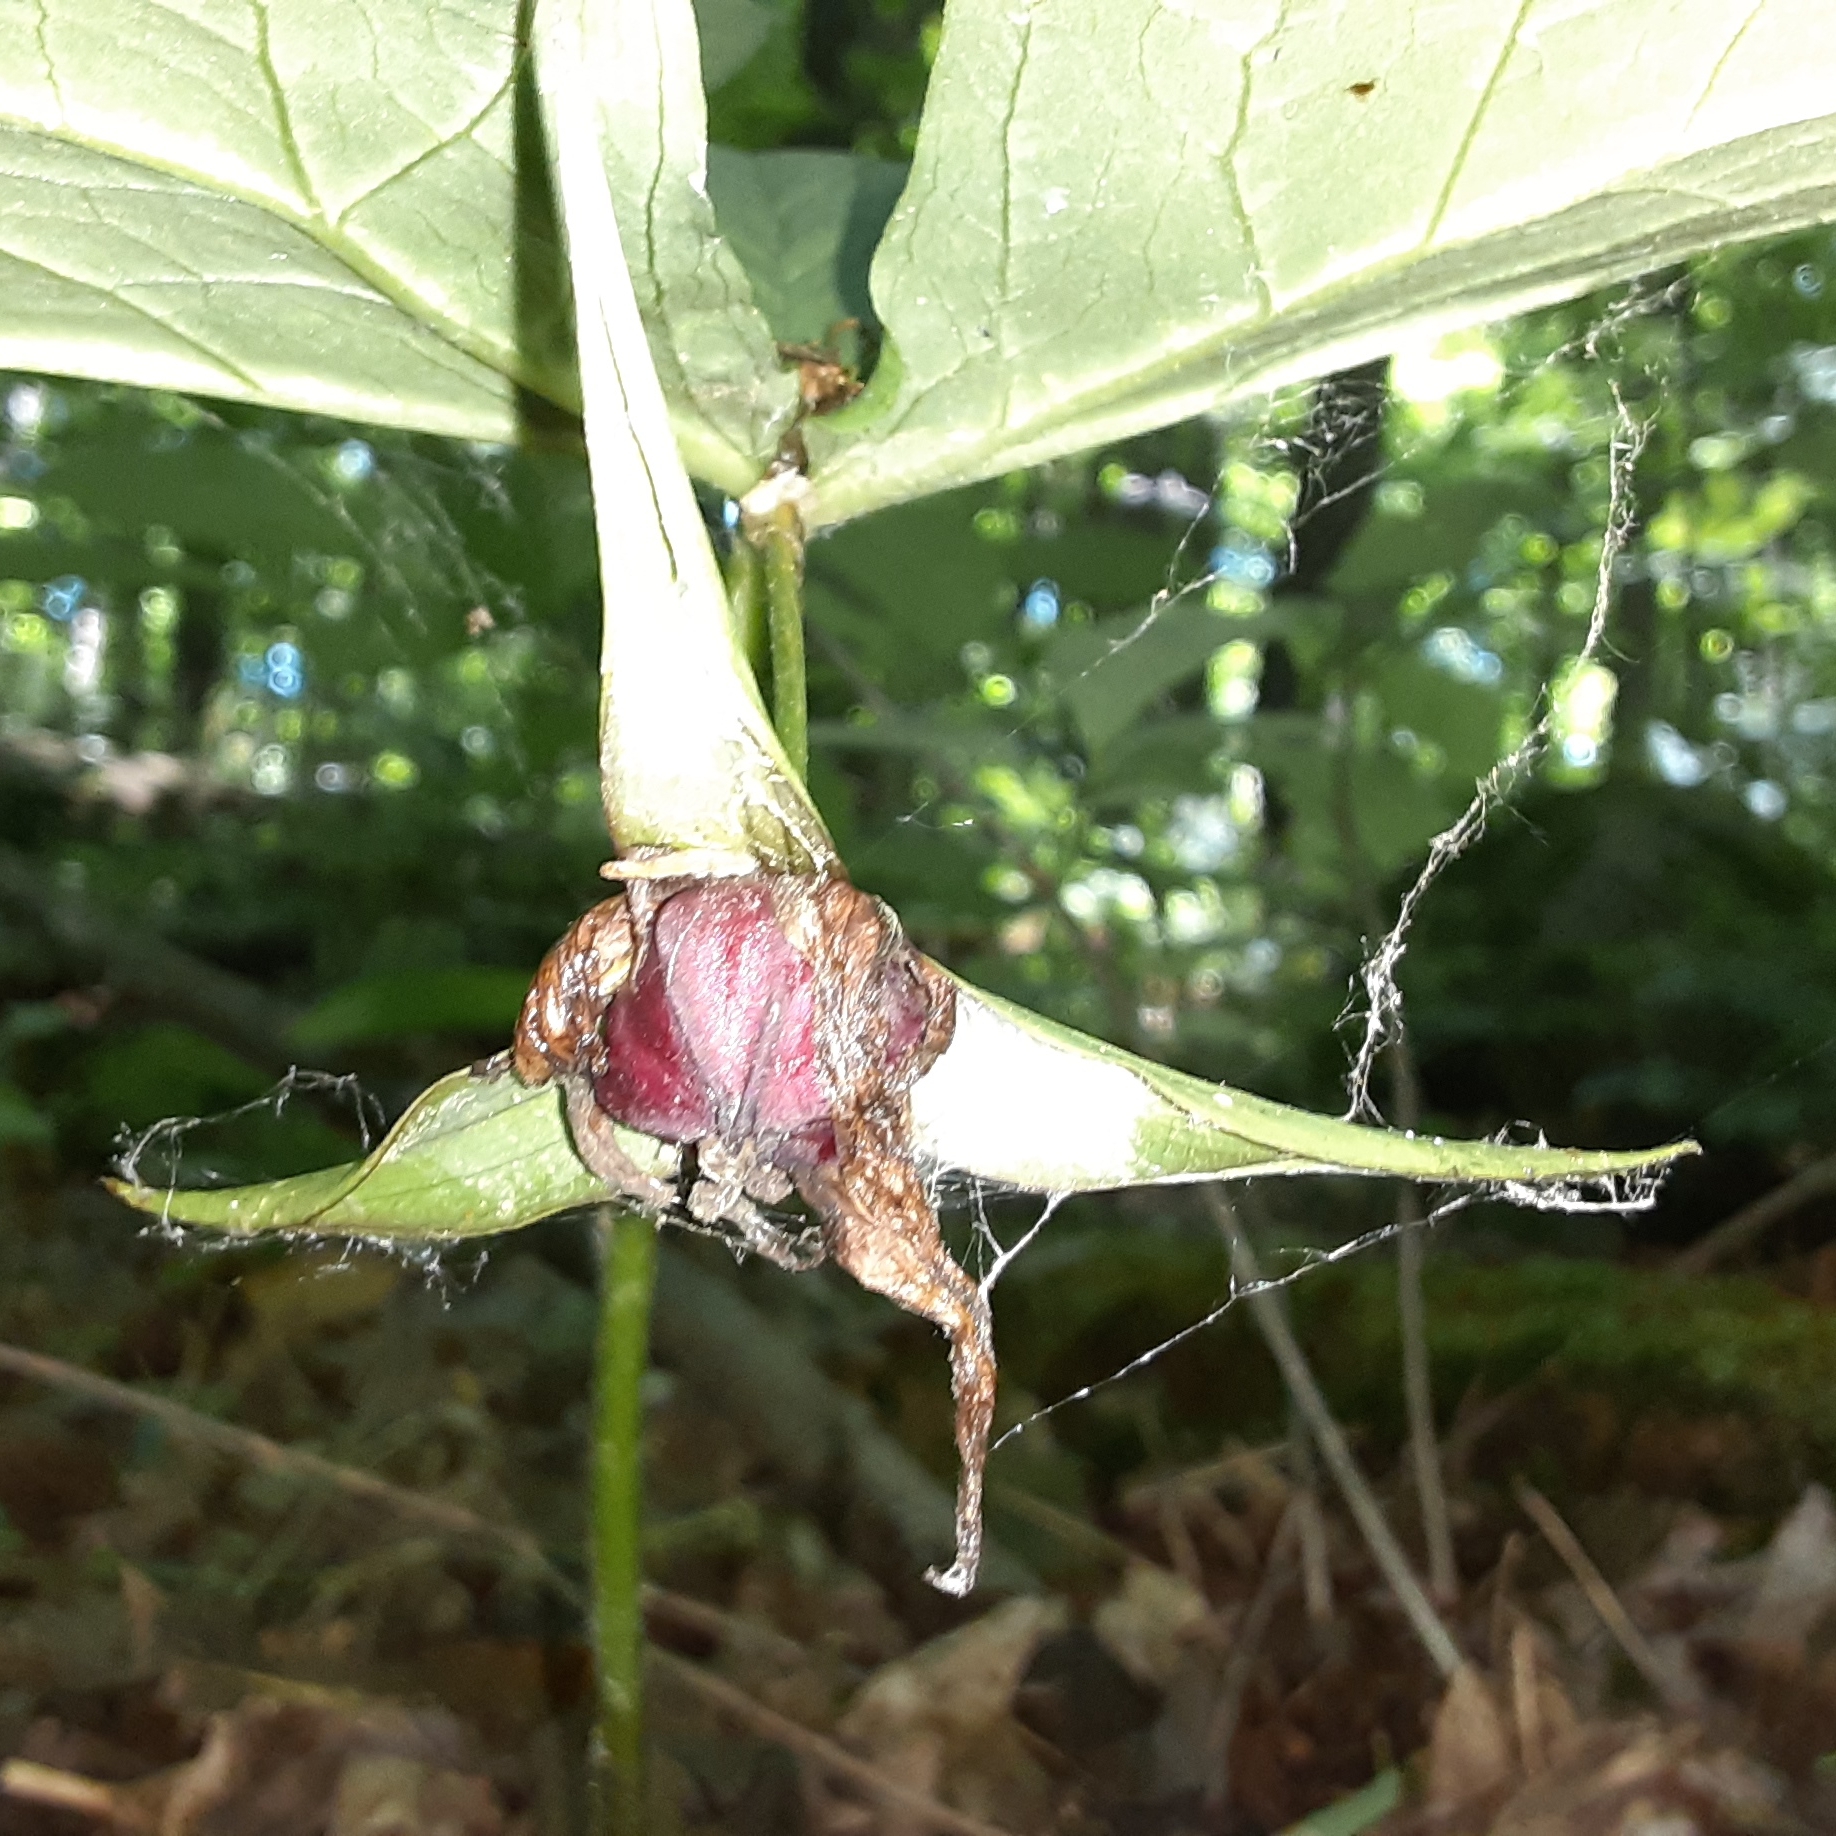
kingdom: Plantae
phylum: Tracheophyta
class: Liliopsida
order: Liliales
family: Melanthiaceae
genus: Trillium
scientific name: Trillium erectum
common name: Purple trillium
